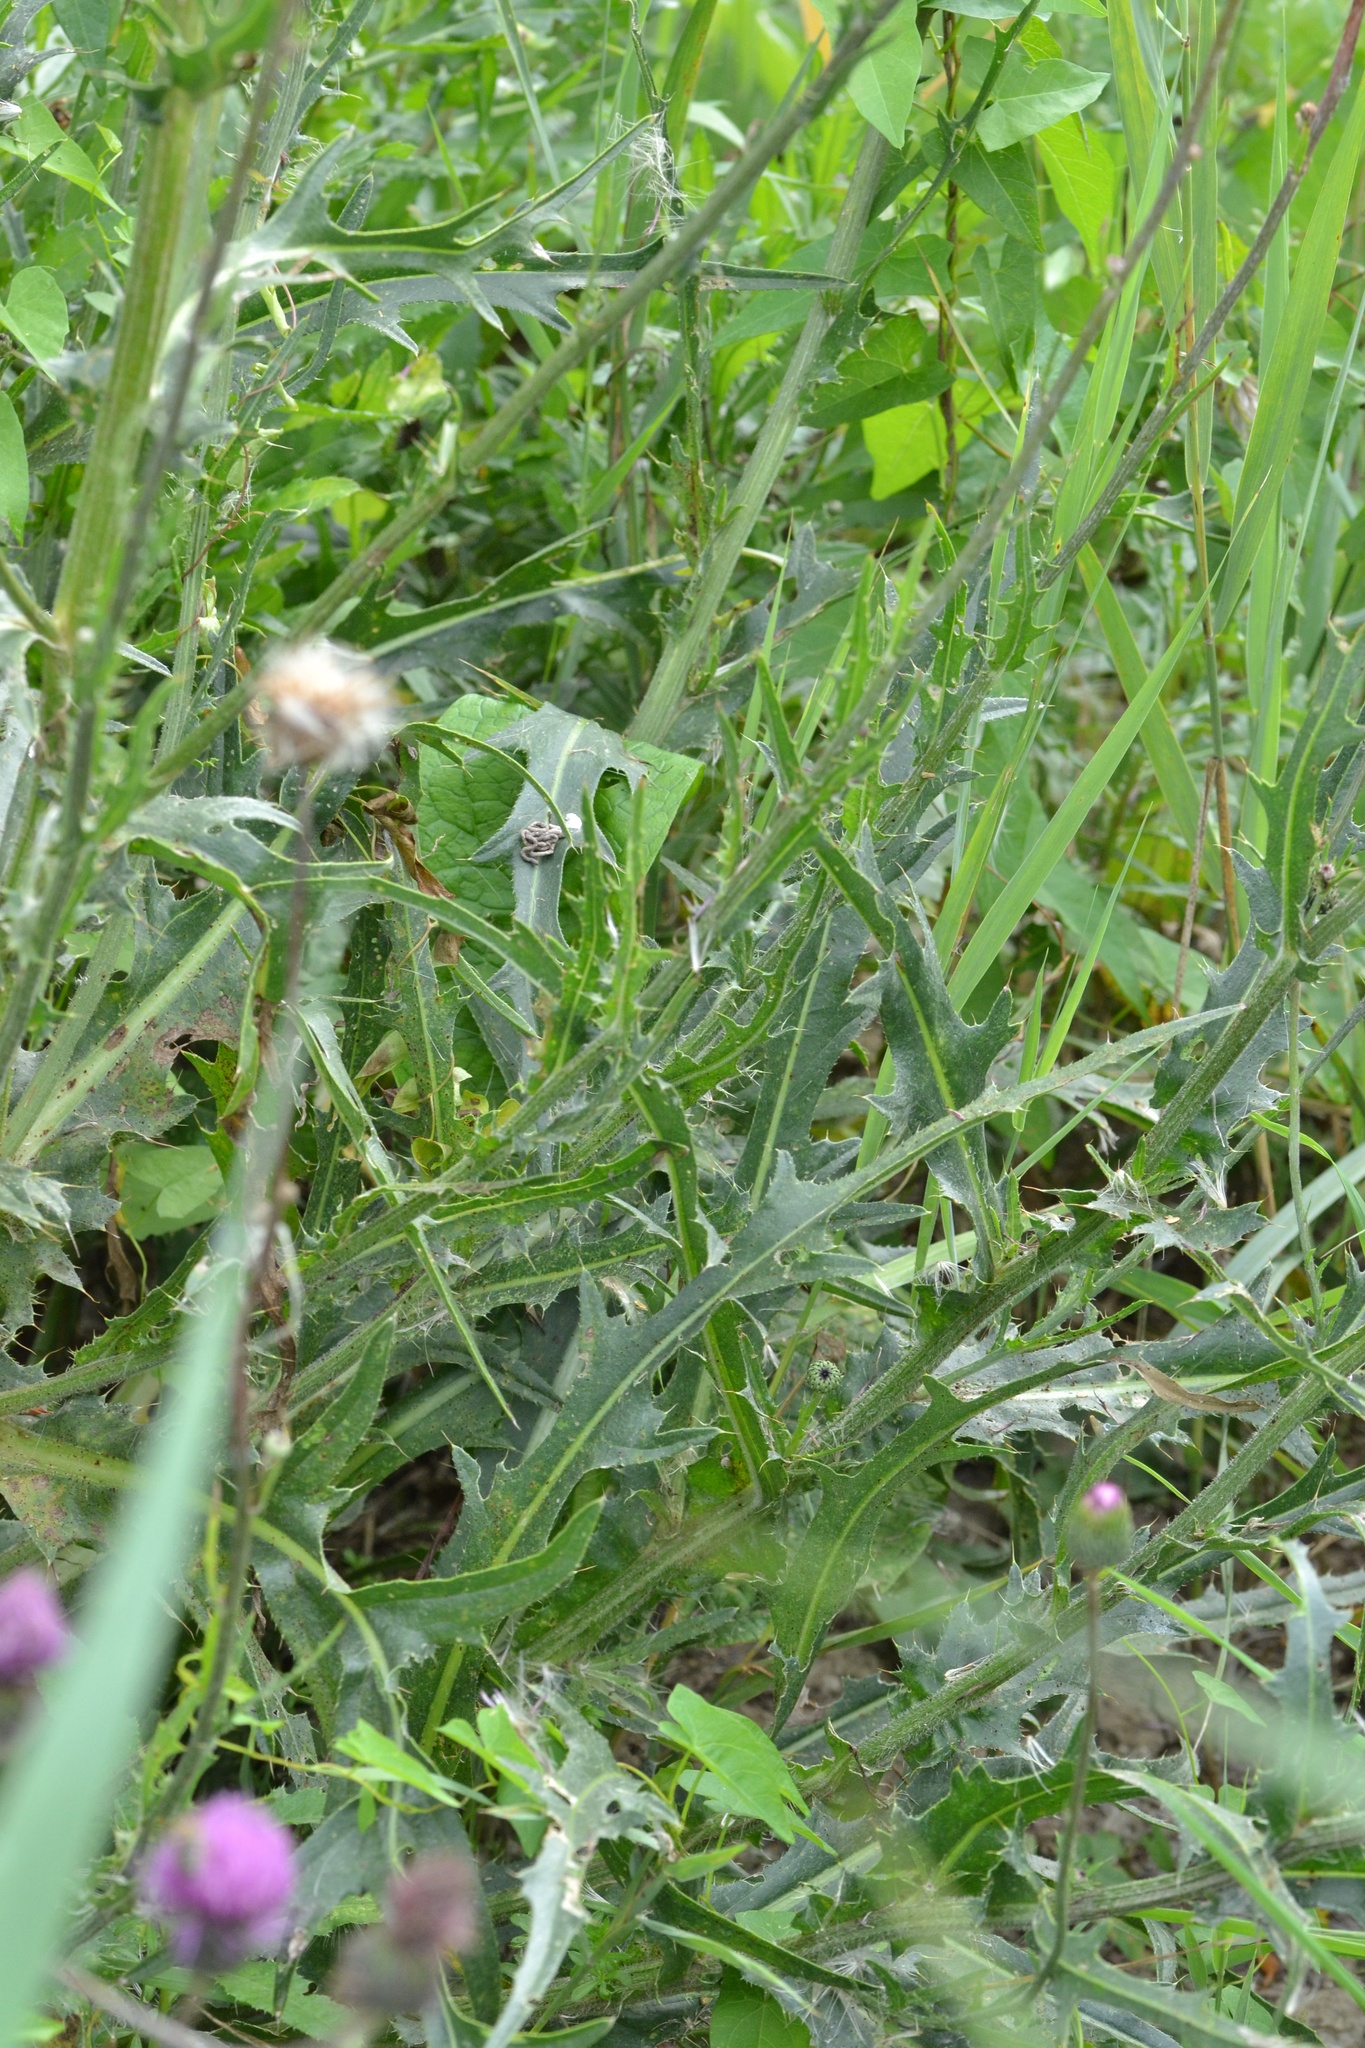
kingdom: Plantae
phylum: Tracheophyta
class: Magnoliopsida
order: Asterales
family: Asteraceae
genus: Cirsium
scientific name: Cirsium canum
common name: Queen anne's thistle
